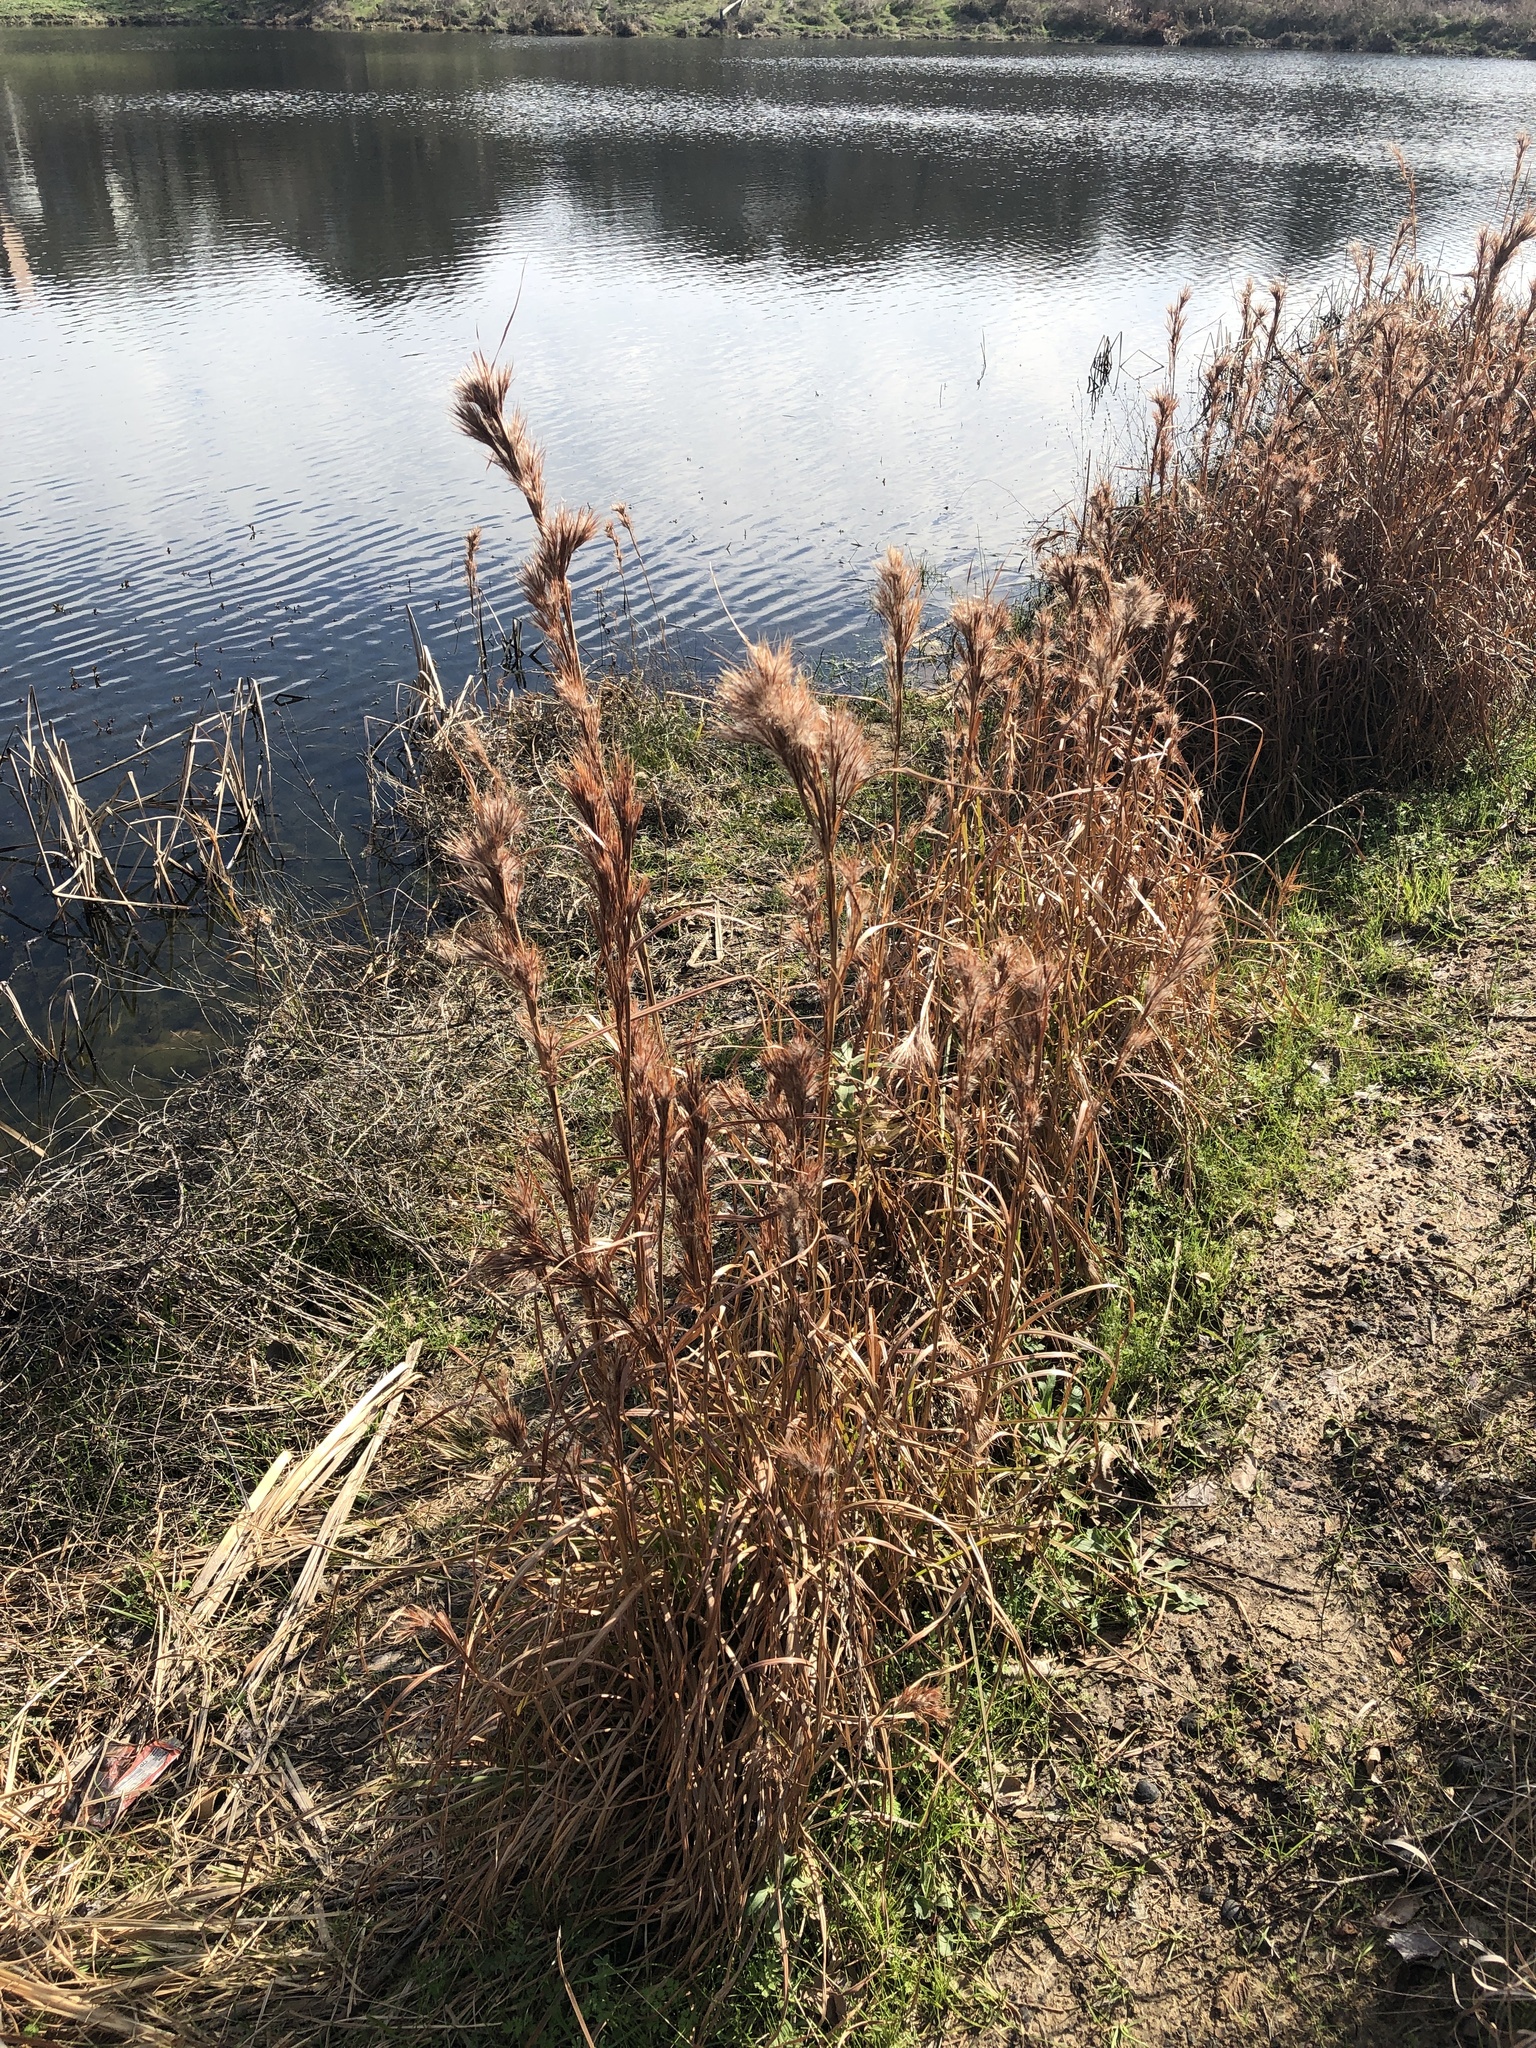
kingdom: Plantae
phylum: Tracheophyta
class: Liliopsida
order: Poales
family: Poaceae
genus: Andropogon
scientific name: Andropogon tenuispatheus
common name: Bushy bluestem
